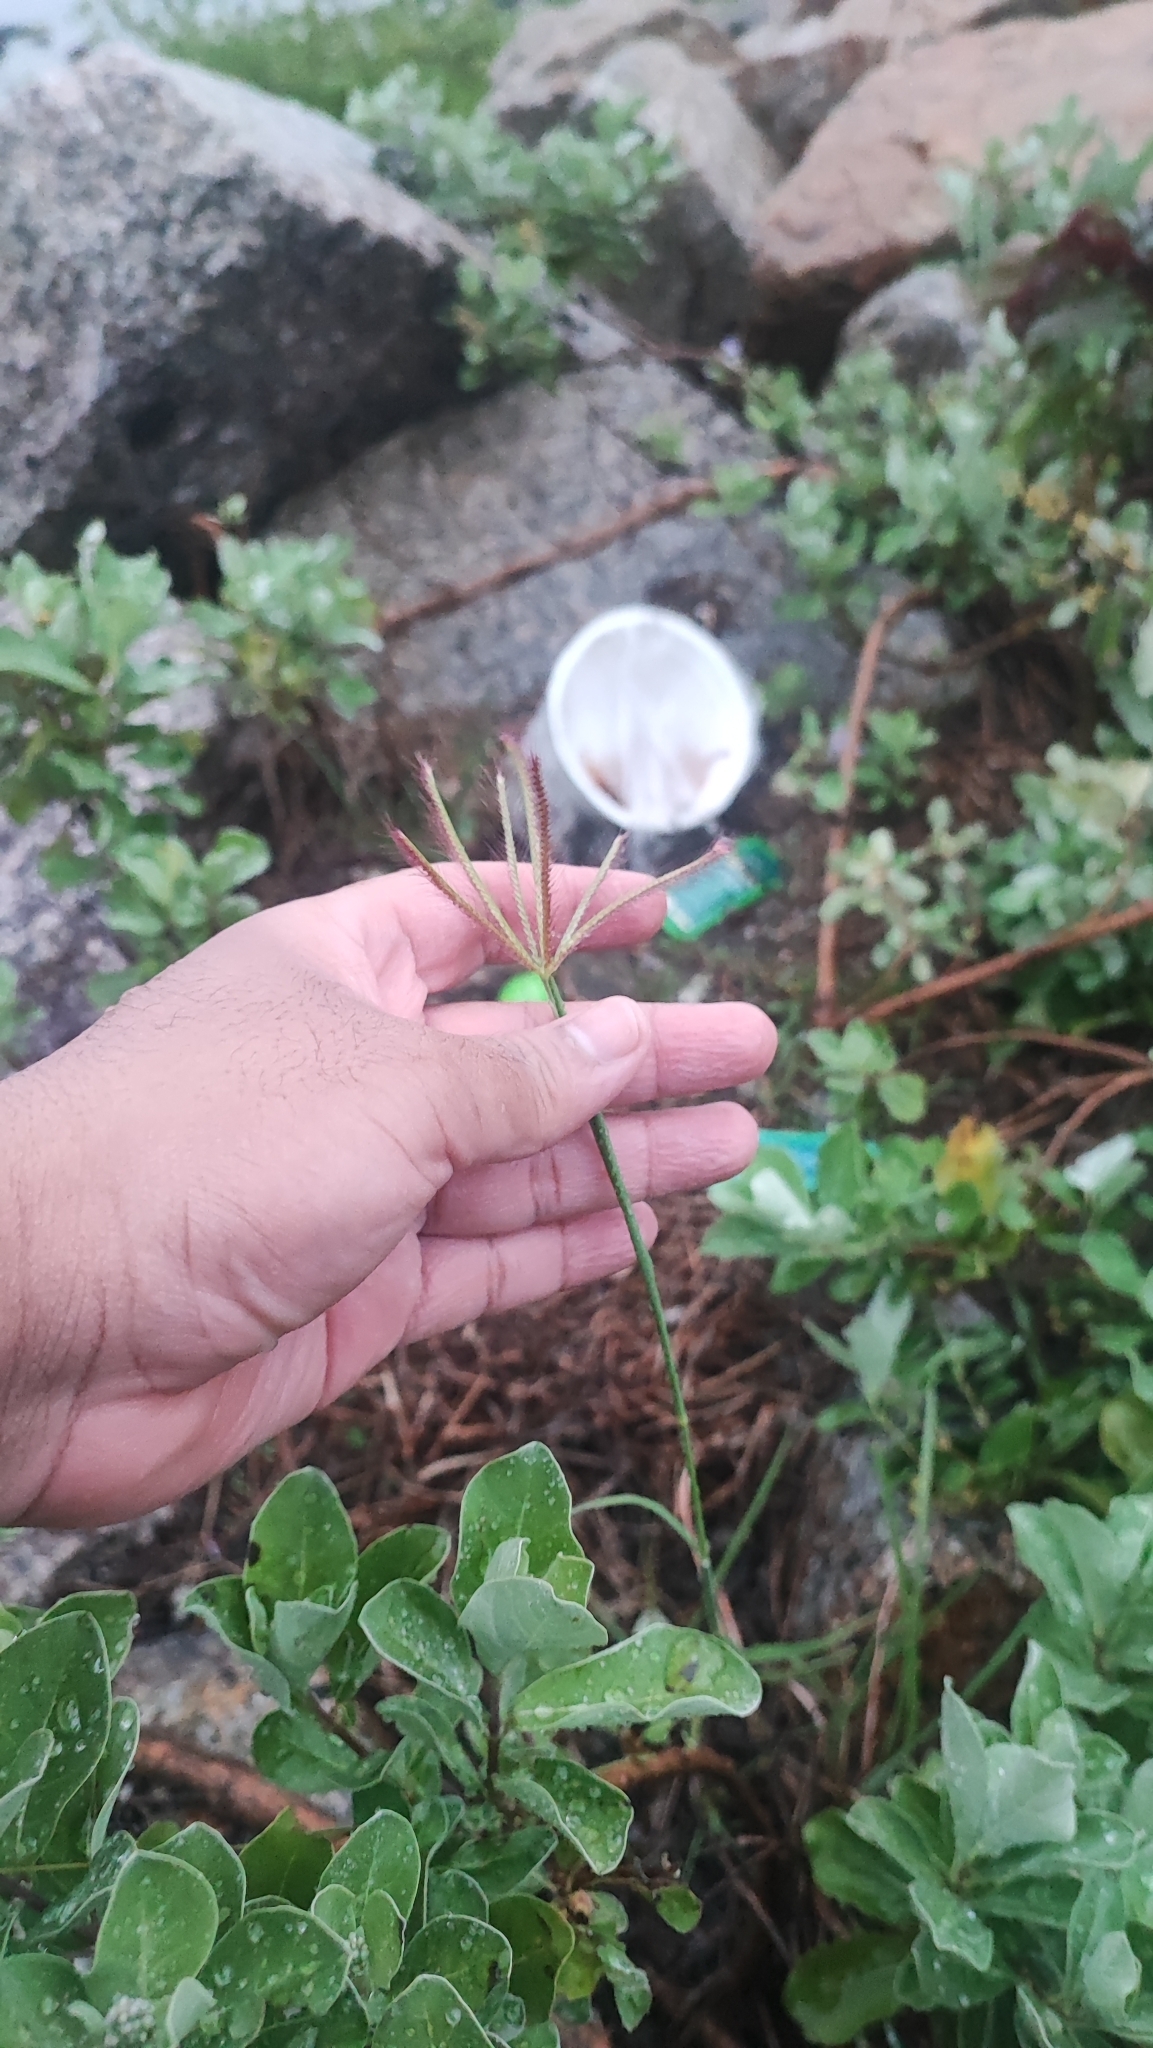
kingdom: Plantae
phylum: Tracheophyta
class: Liliopsida
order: Poales
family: Poaceae
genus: Chloris
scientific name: Chloris barbata
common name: Swollen fingergrass
